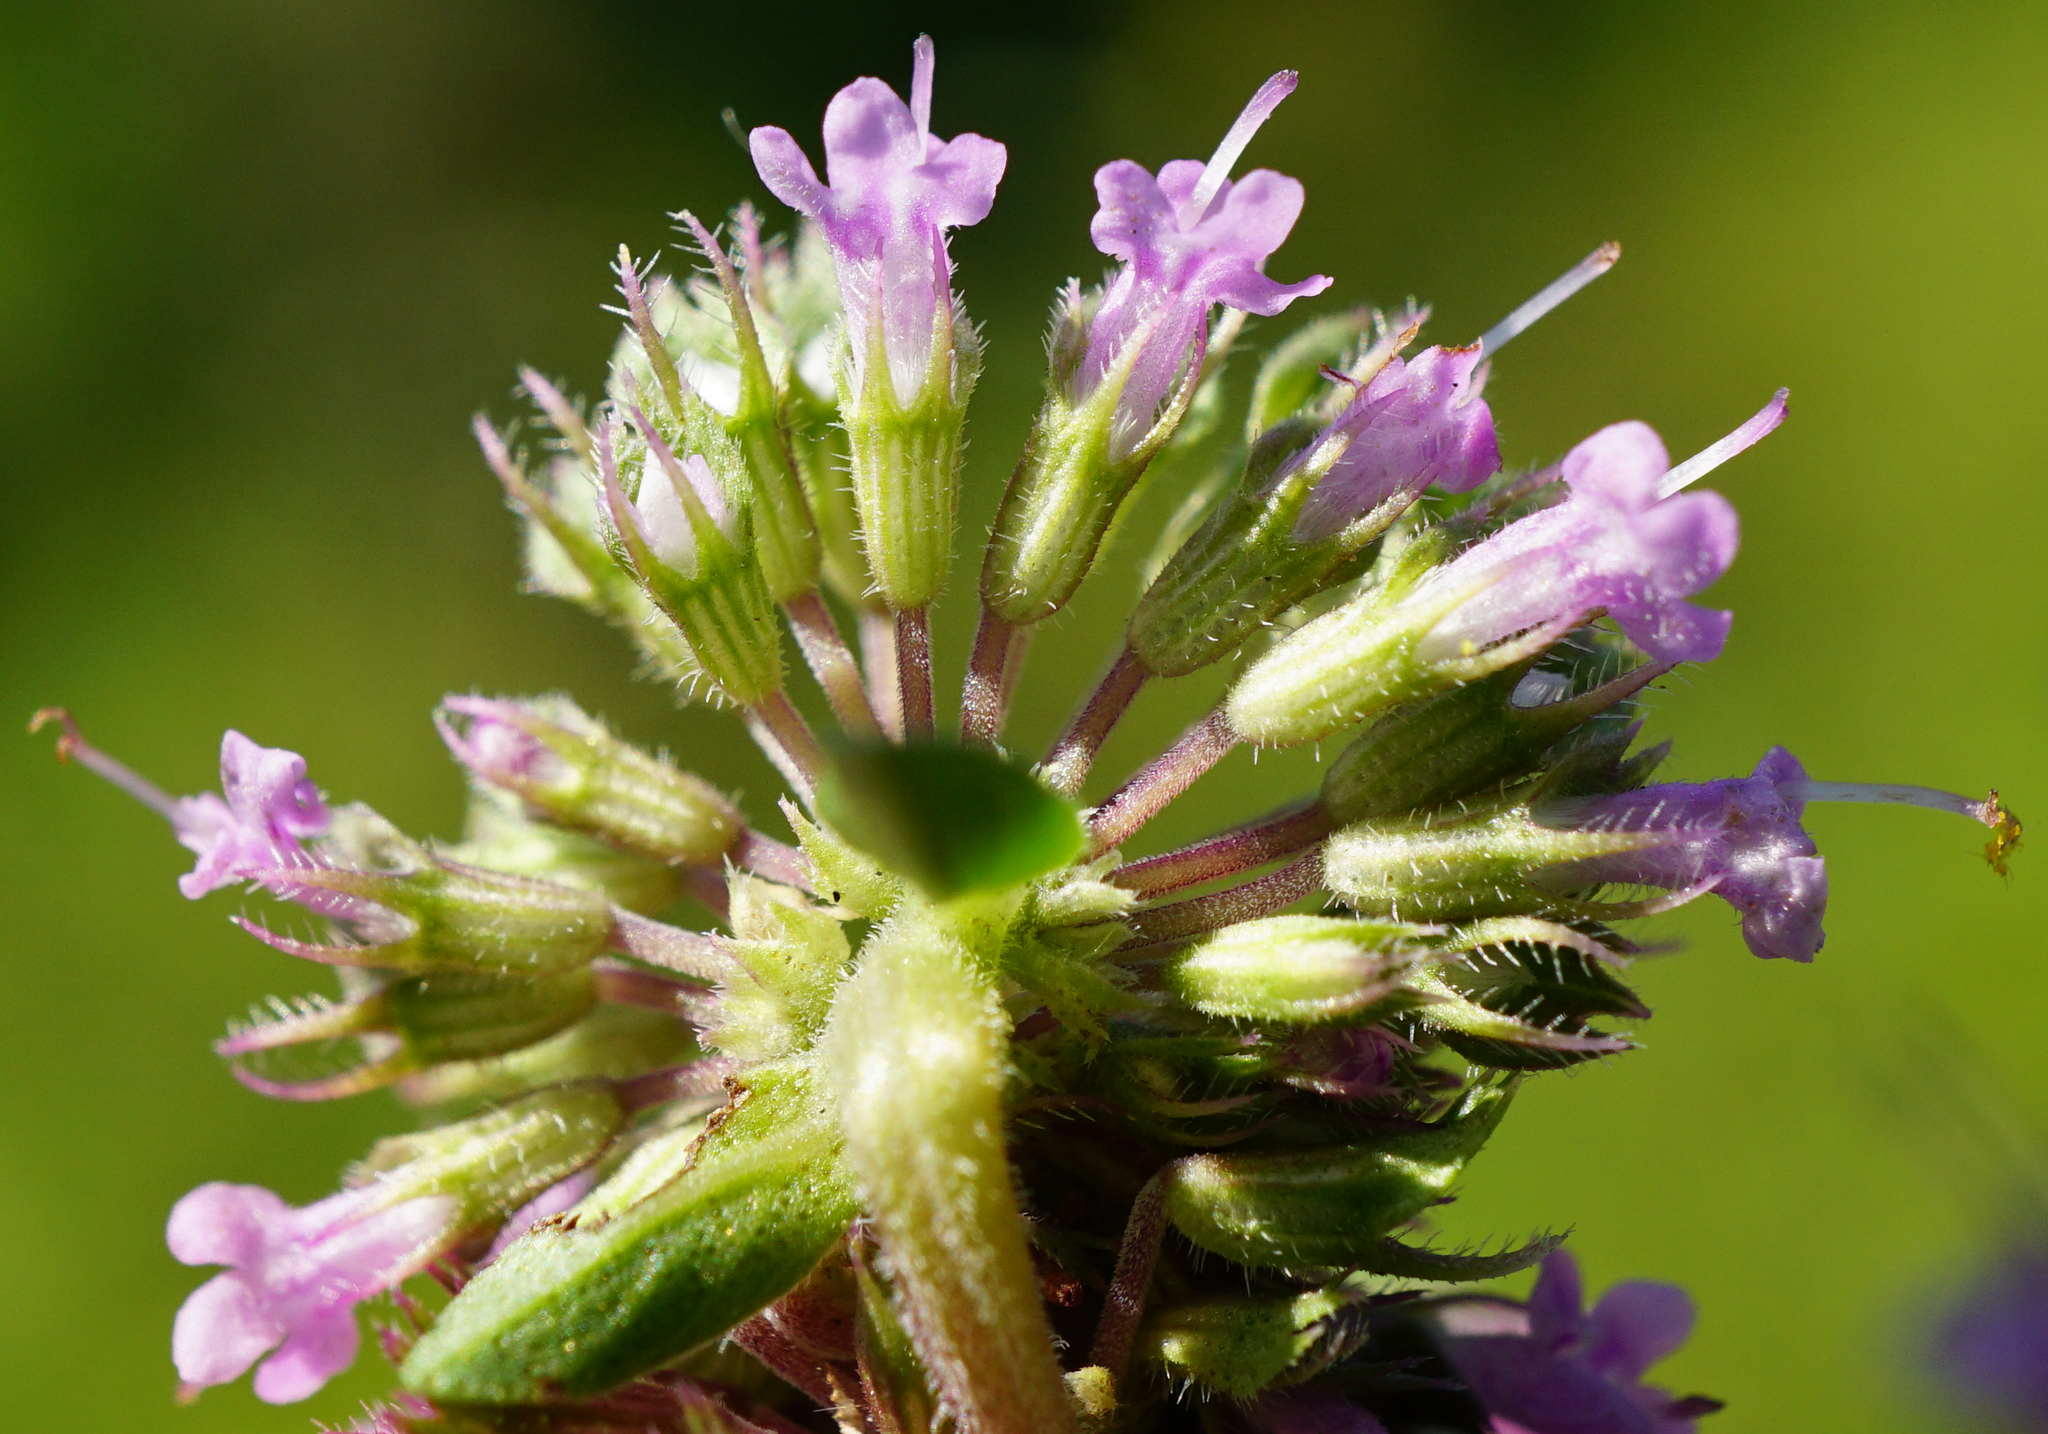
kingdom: Plantae
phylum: Tracheophyta
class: Magnoliopsida
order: Lamiales
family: Lamiaceae
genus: Thymus
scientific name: Thymus pulegioides
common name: Large thyme
